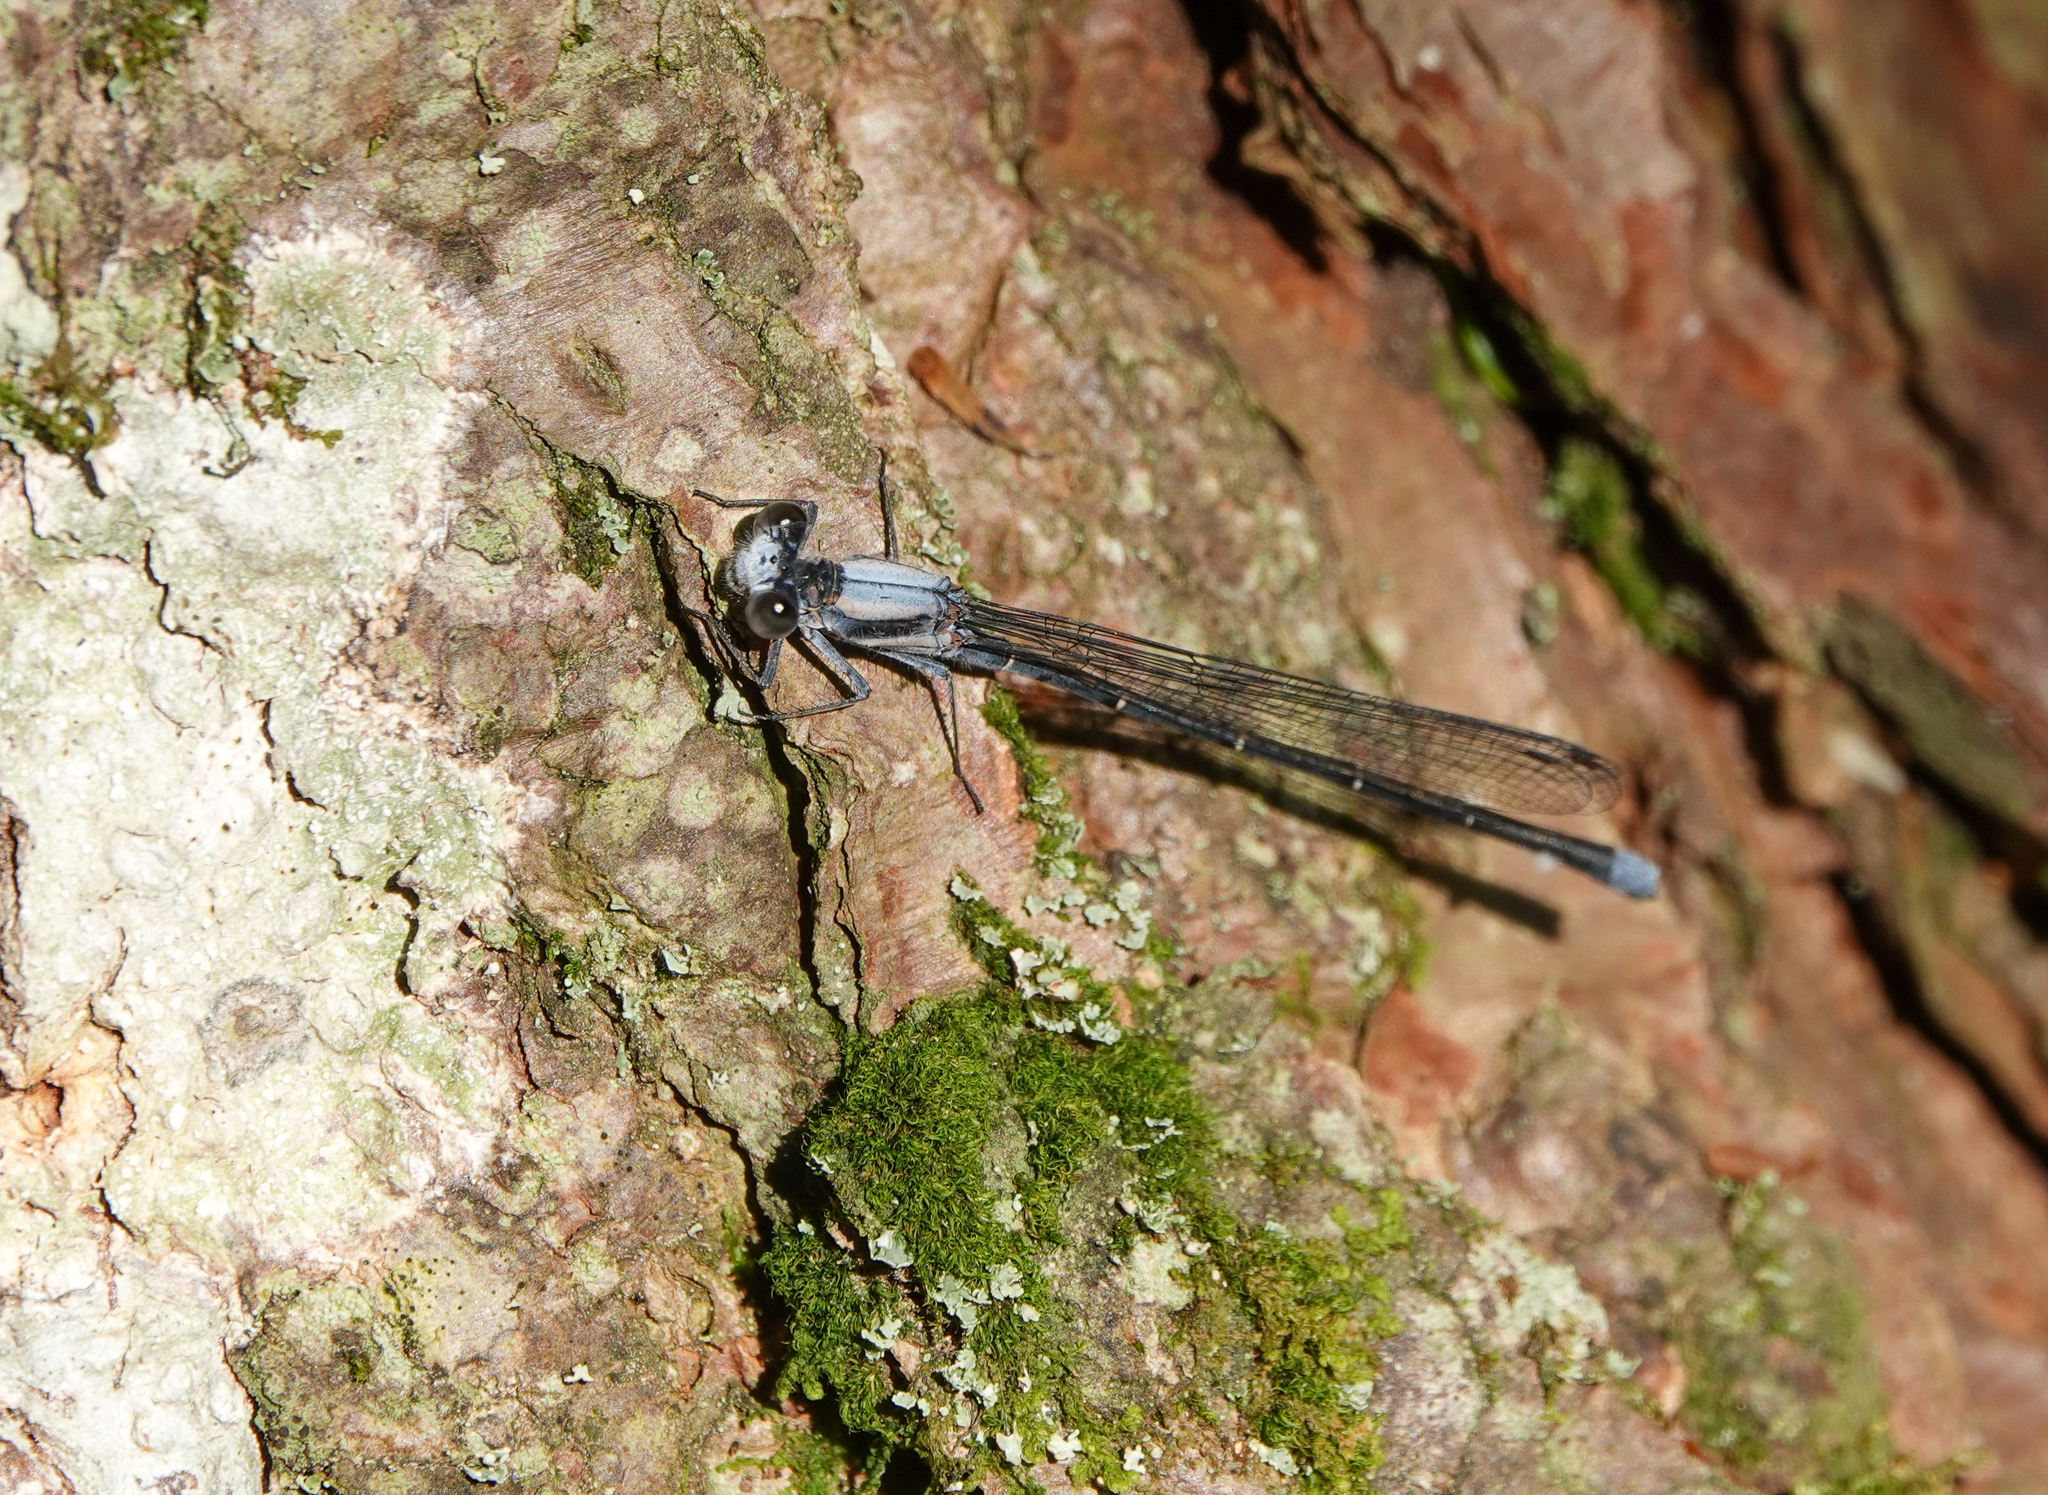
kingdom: Animalia
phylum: Arthropoda
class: Insecta
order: Odonata
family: Coenagrionidae
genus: Argia
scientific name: Argia moesta
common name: Powdered dancer
